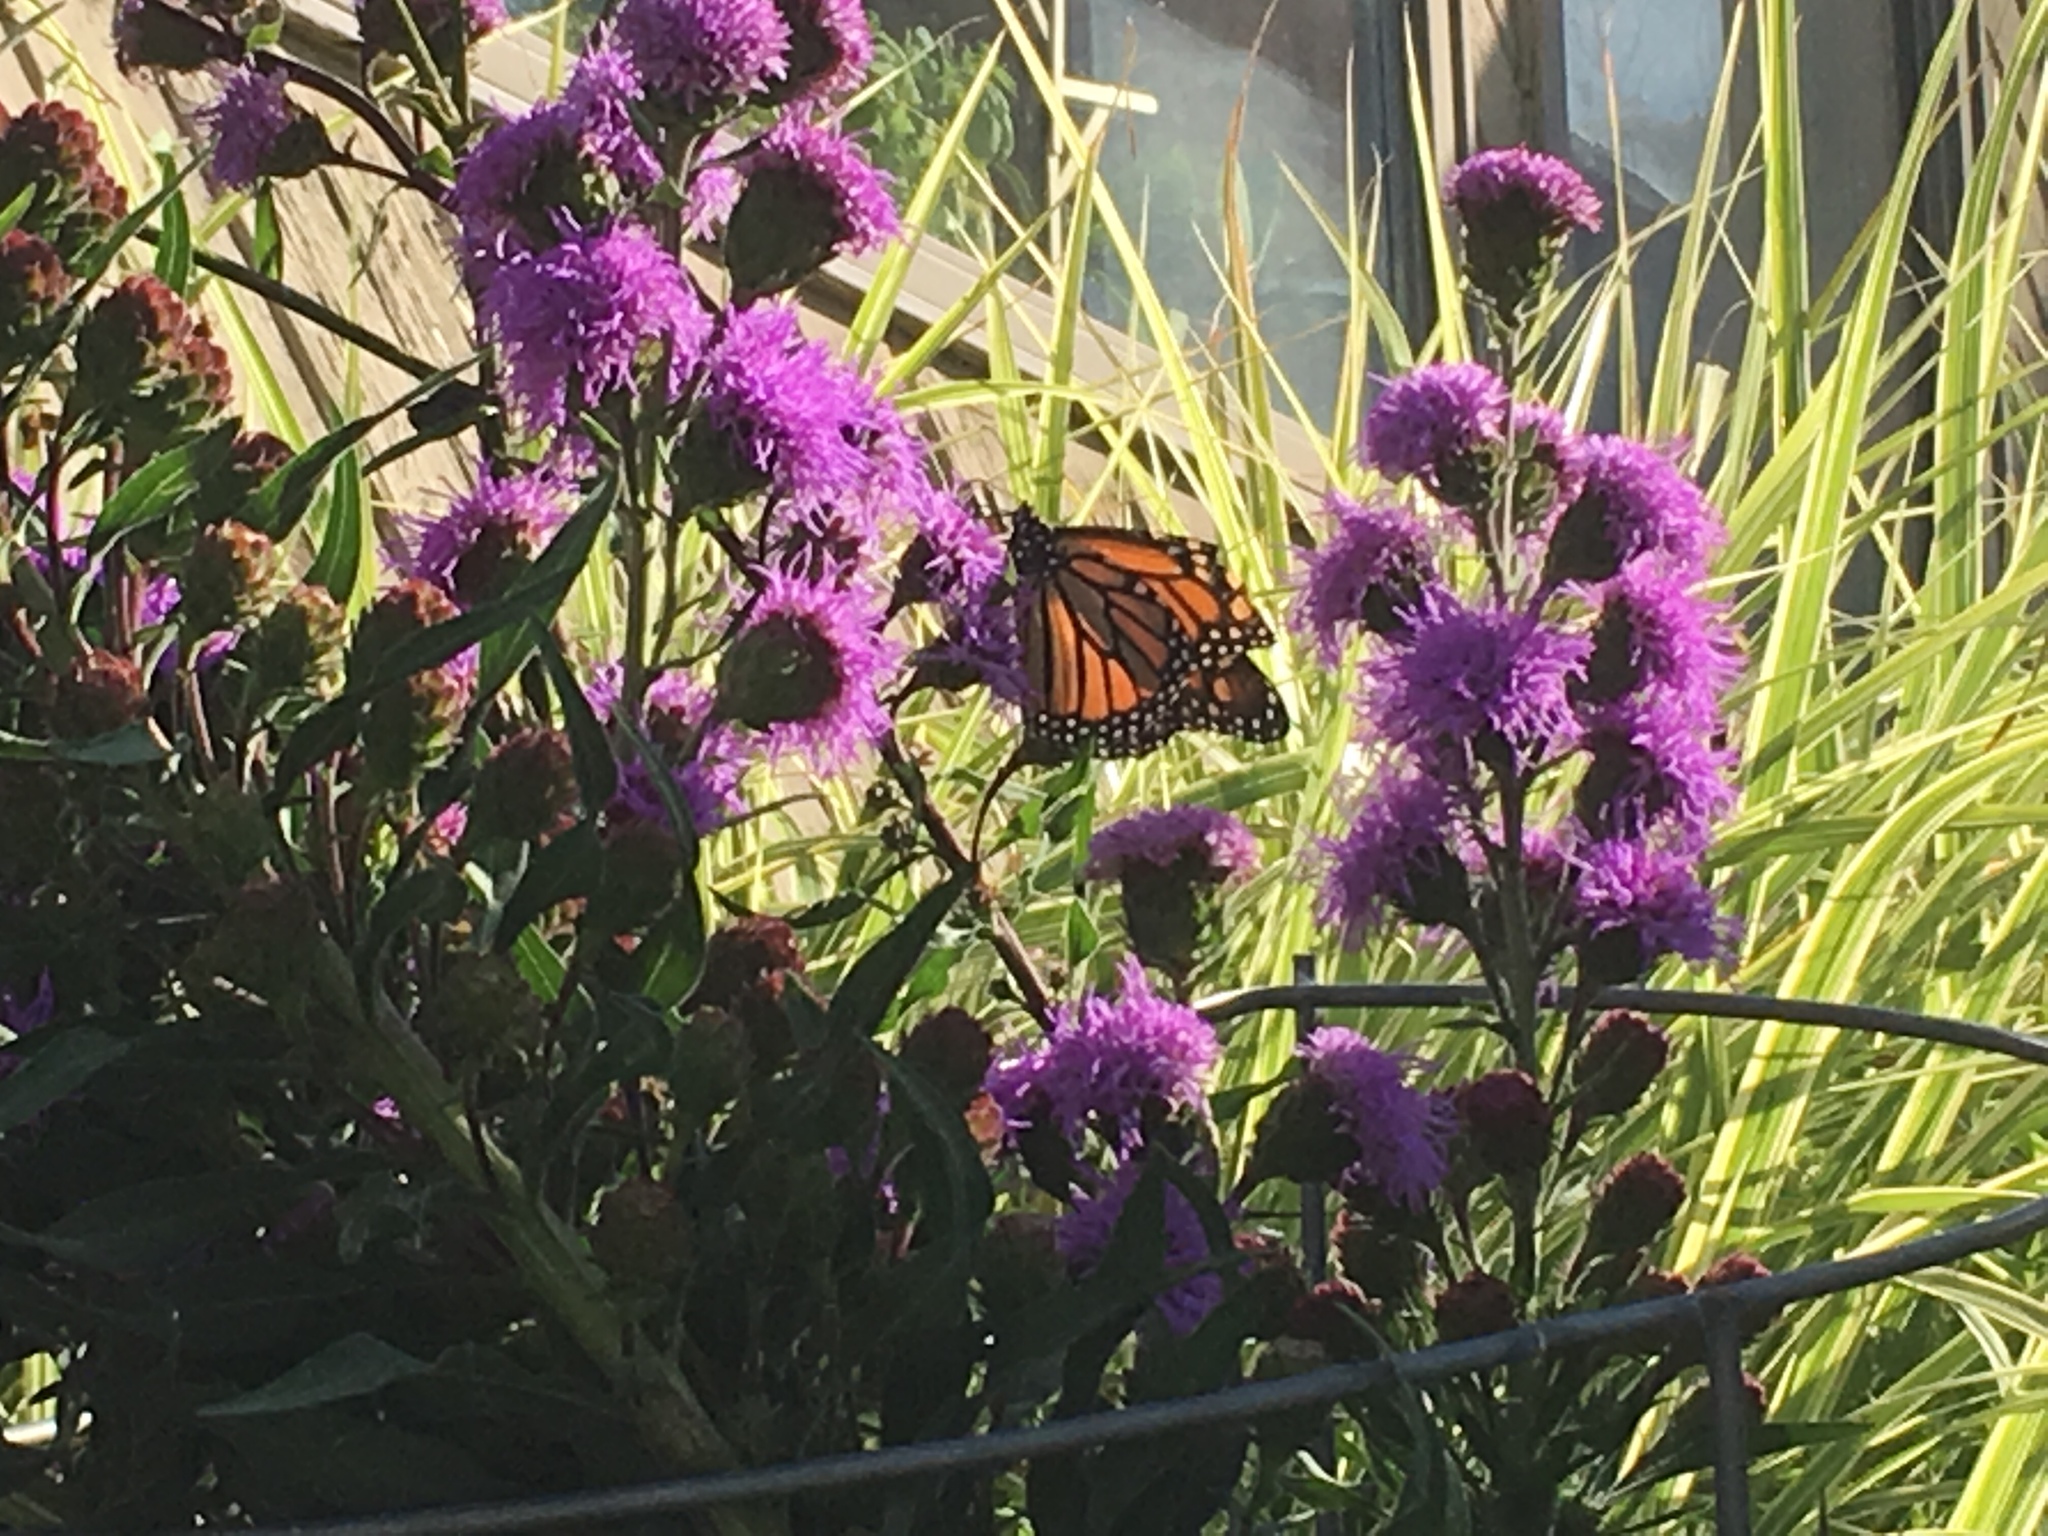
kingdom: Animalia
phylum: Arthropoda
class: Insecta
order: Lepidoptera
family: Nymphalidae
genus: Danaus
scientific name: Danaus plexippus
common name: Monarch
